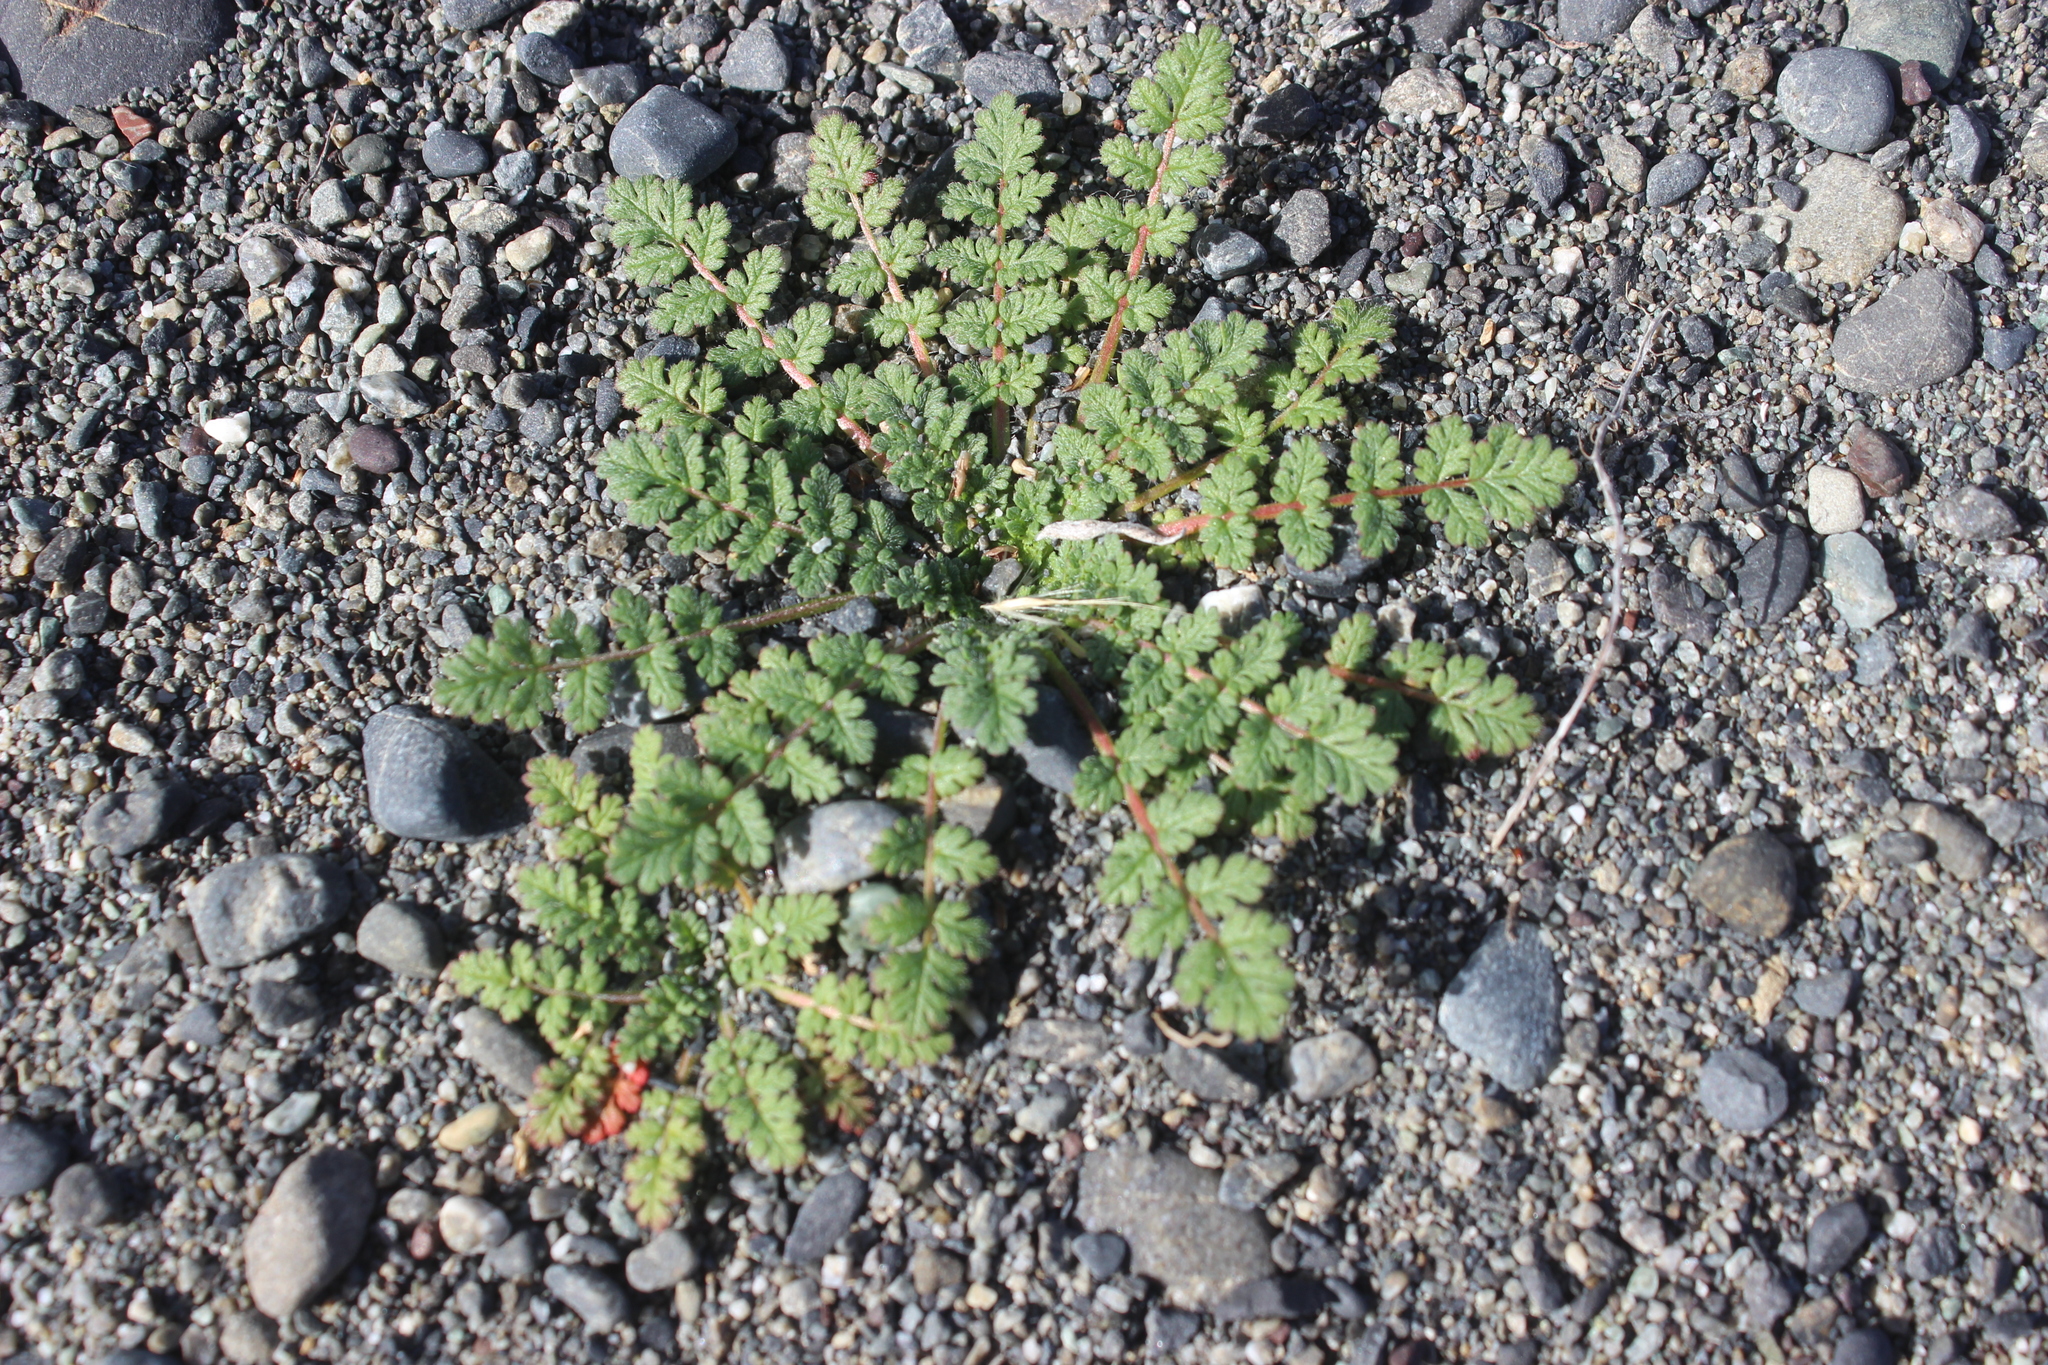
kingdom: Plantae
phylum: Tracheophyta
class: Magnoliopsida
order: Geraniales
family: Geraniaceae
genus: Erodium
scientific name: Erodium cicutarium
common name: Common stork's-bill
